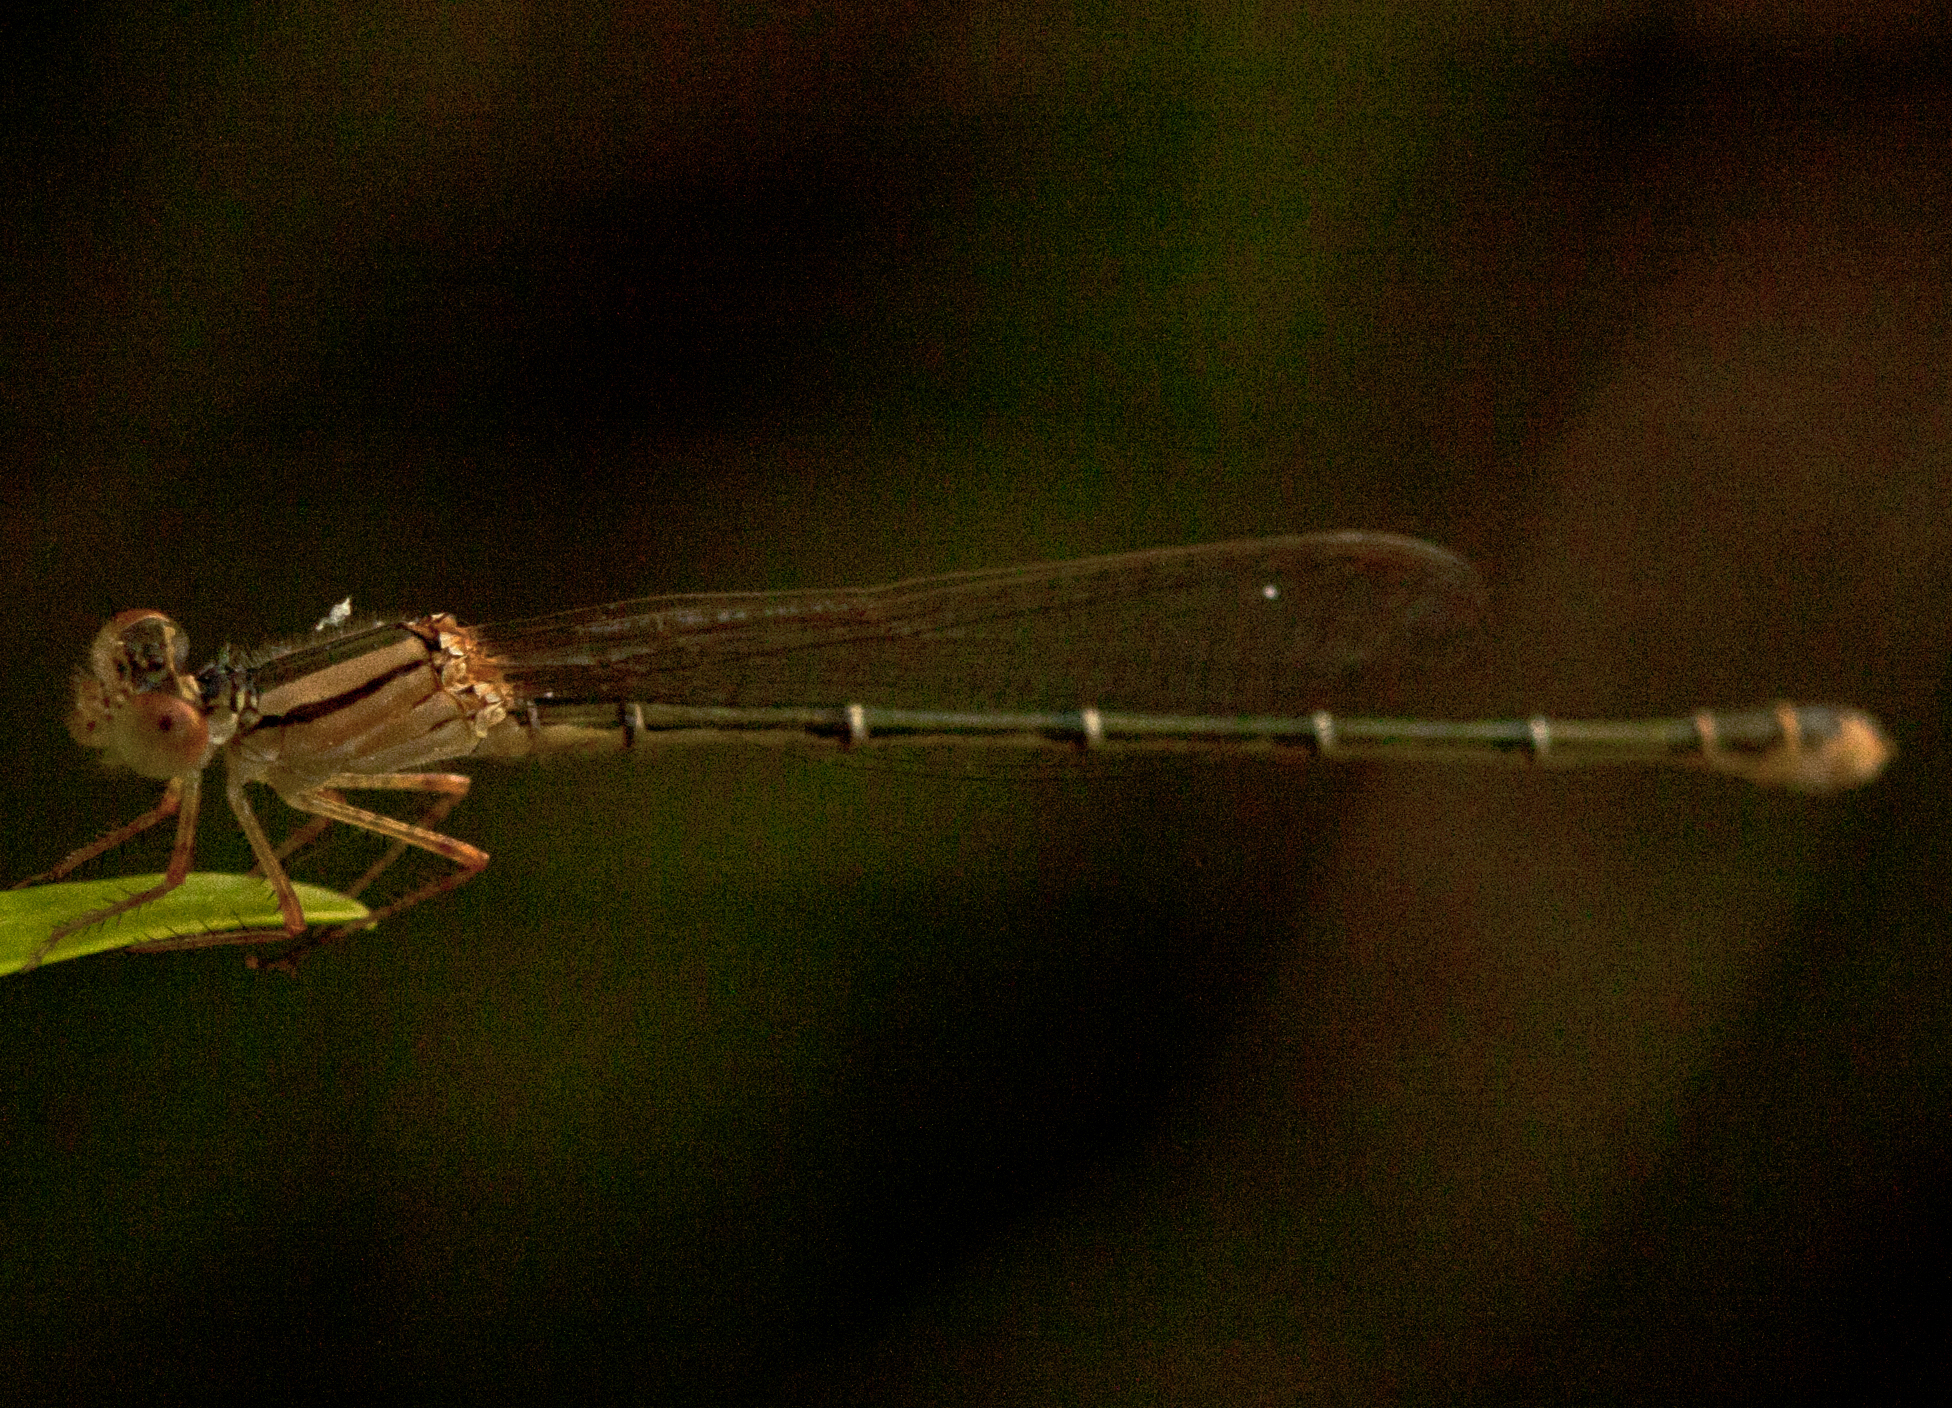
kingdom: Animalia
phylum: Arthropoda
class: Insecta
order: Odonata
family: Coenagrionidae
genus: Xanthagrion
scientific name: Xanthagrion erythroneurum
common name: Red and blue damsel
